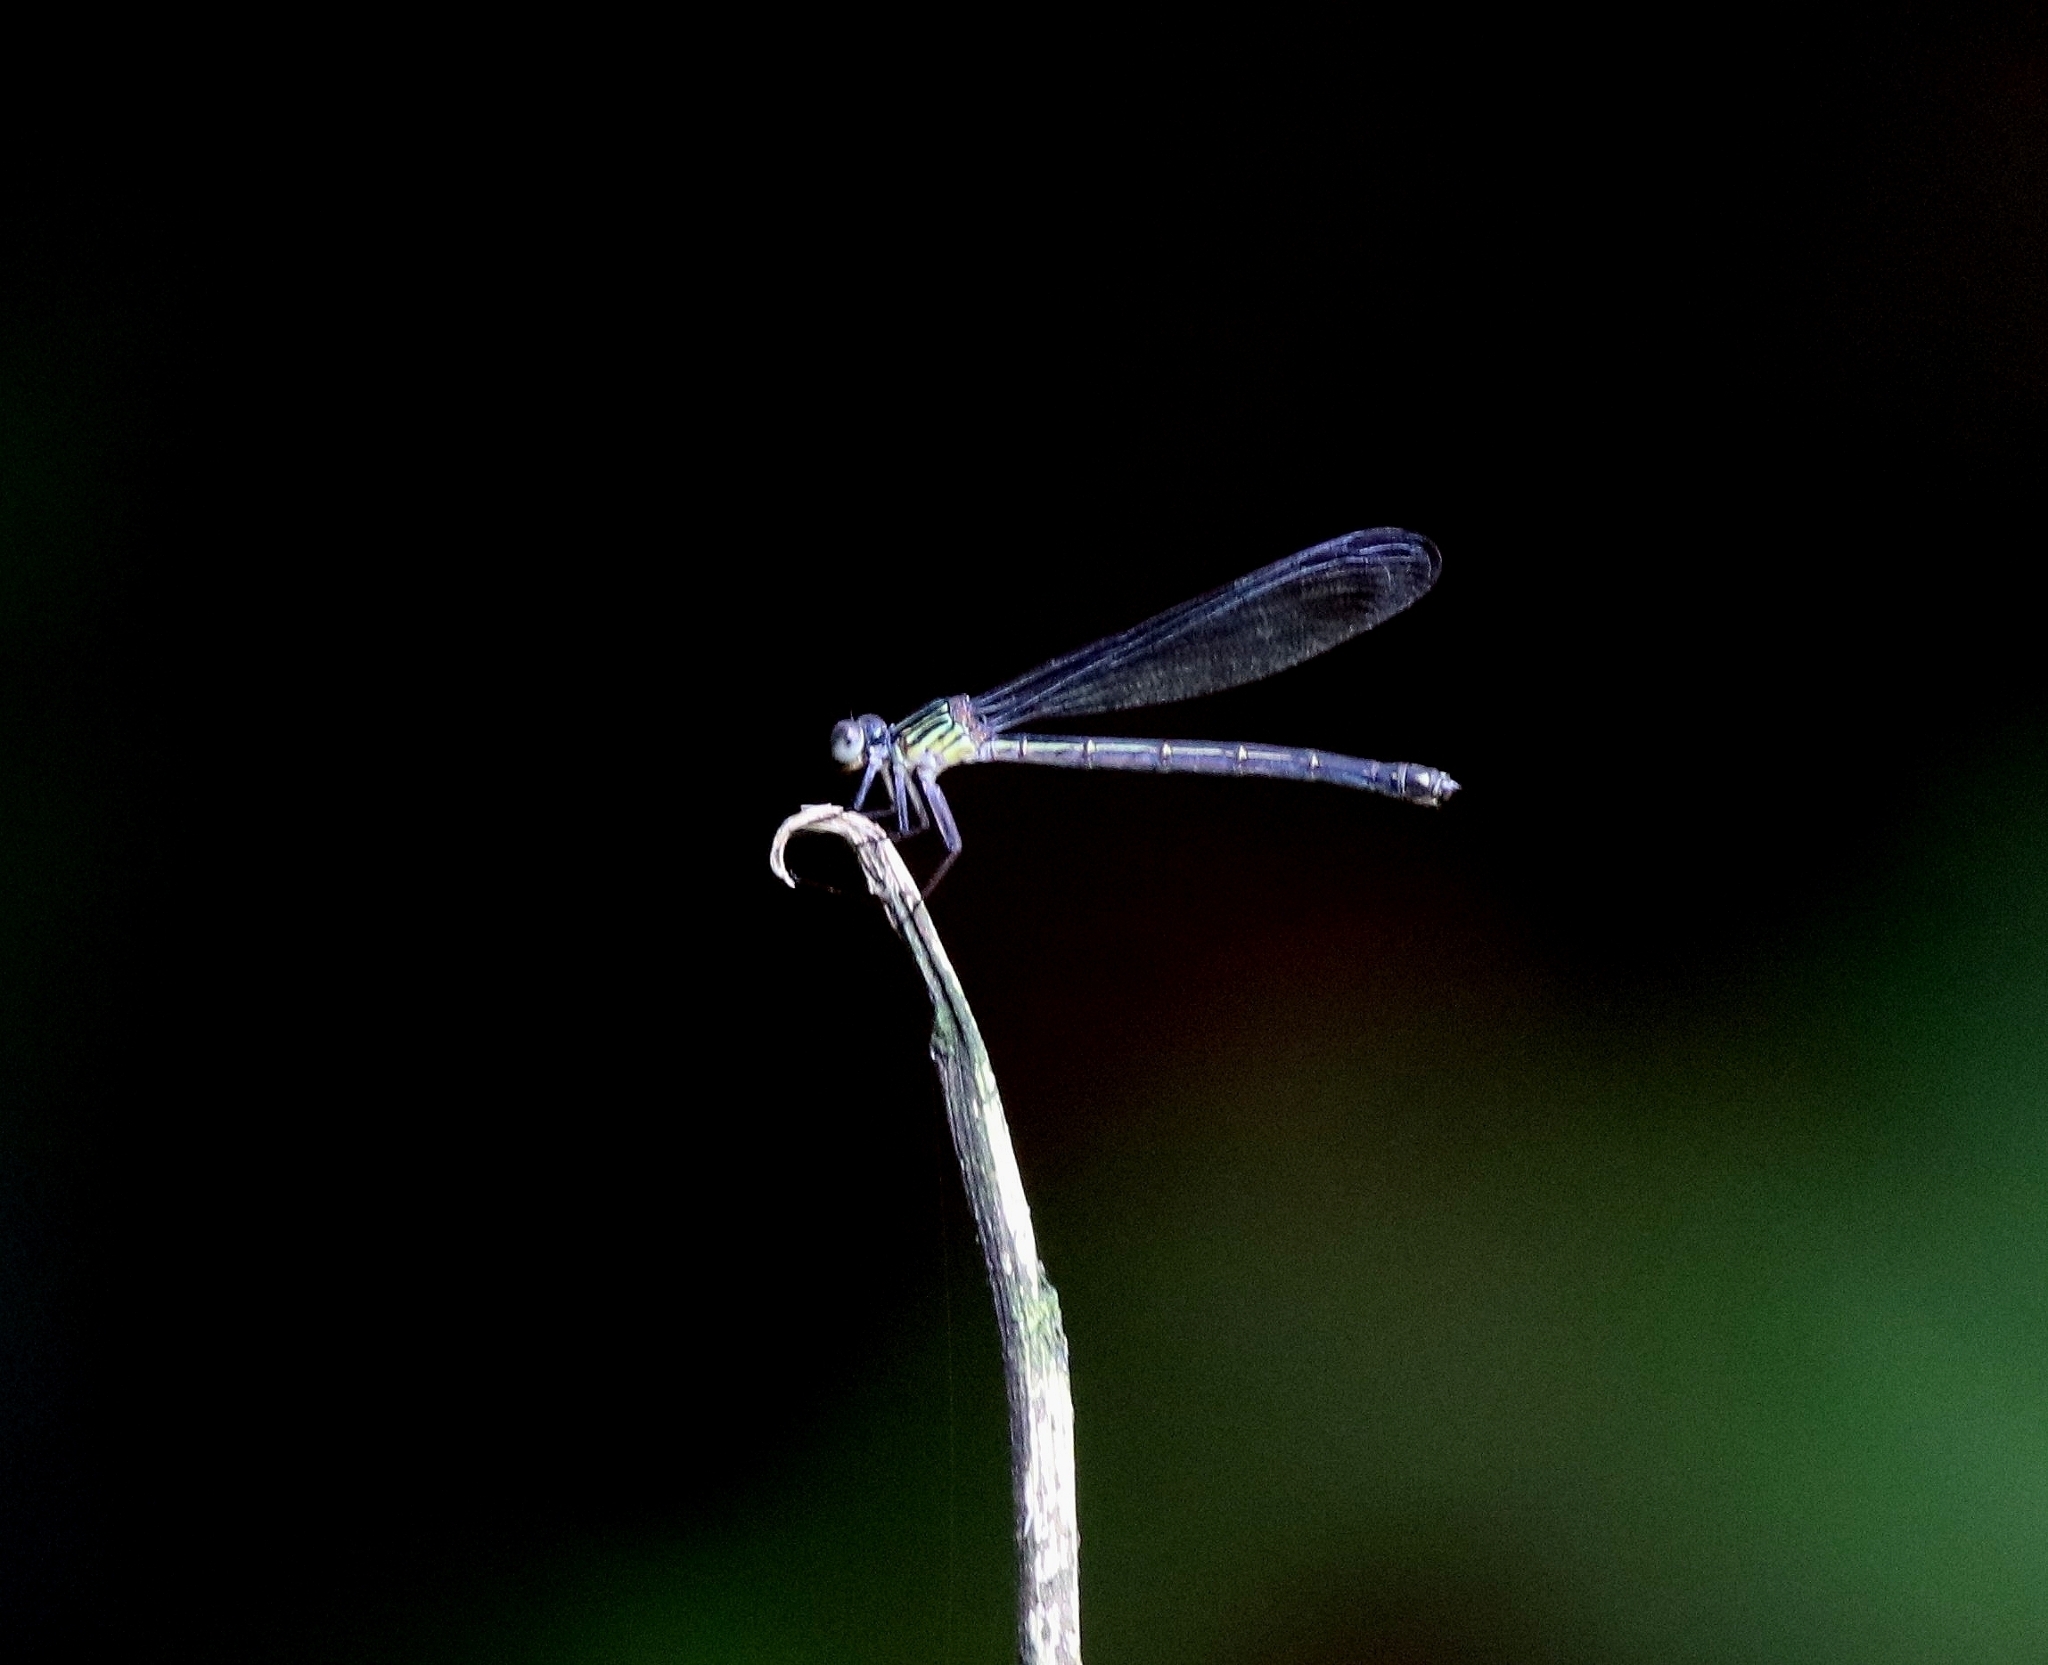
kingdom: Animalia
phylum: Arthropoda
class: Insecta
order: Odonata
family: Euphaeidae
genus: Euphaea
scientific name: Euphaea fraseri
